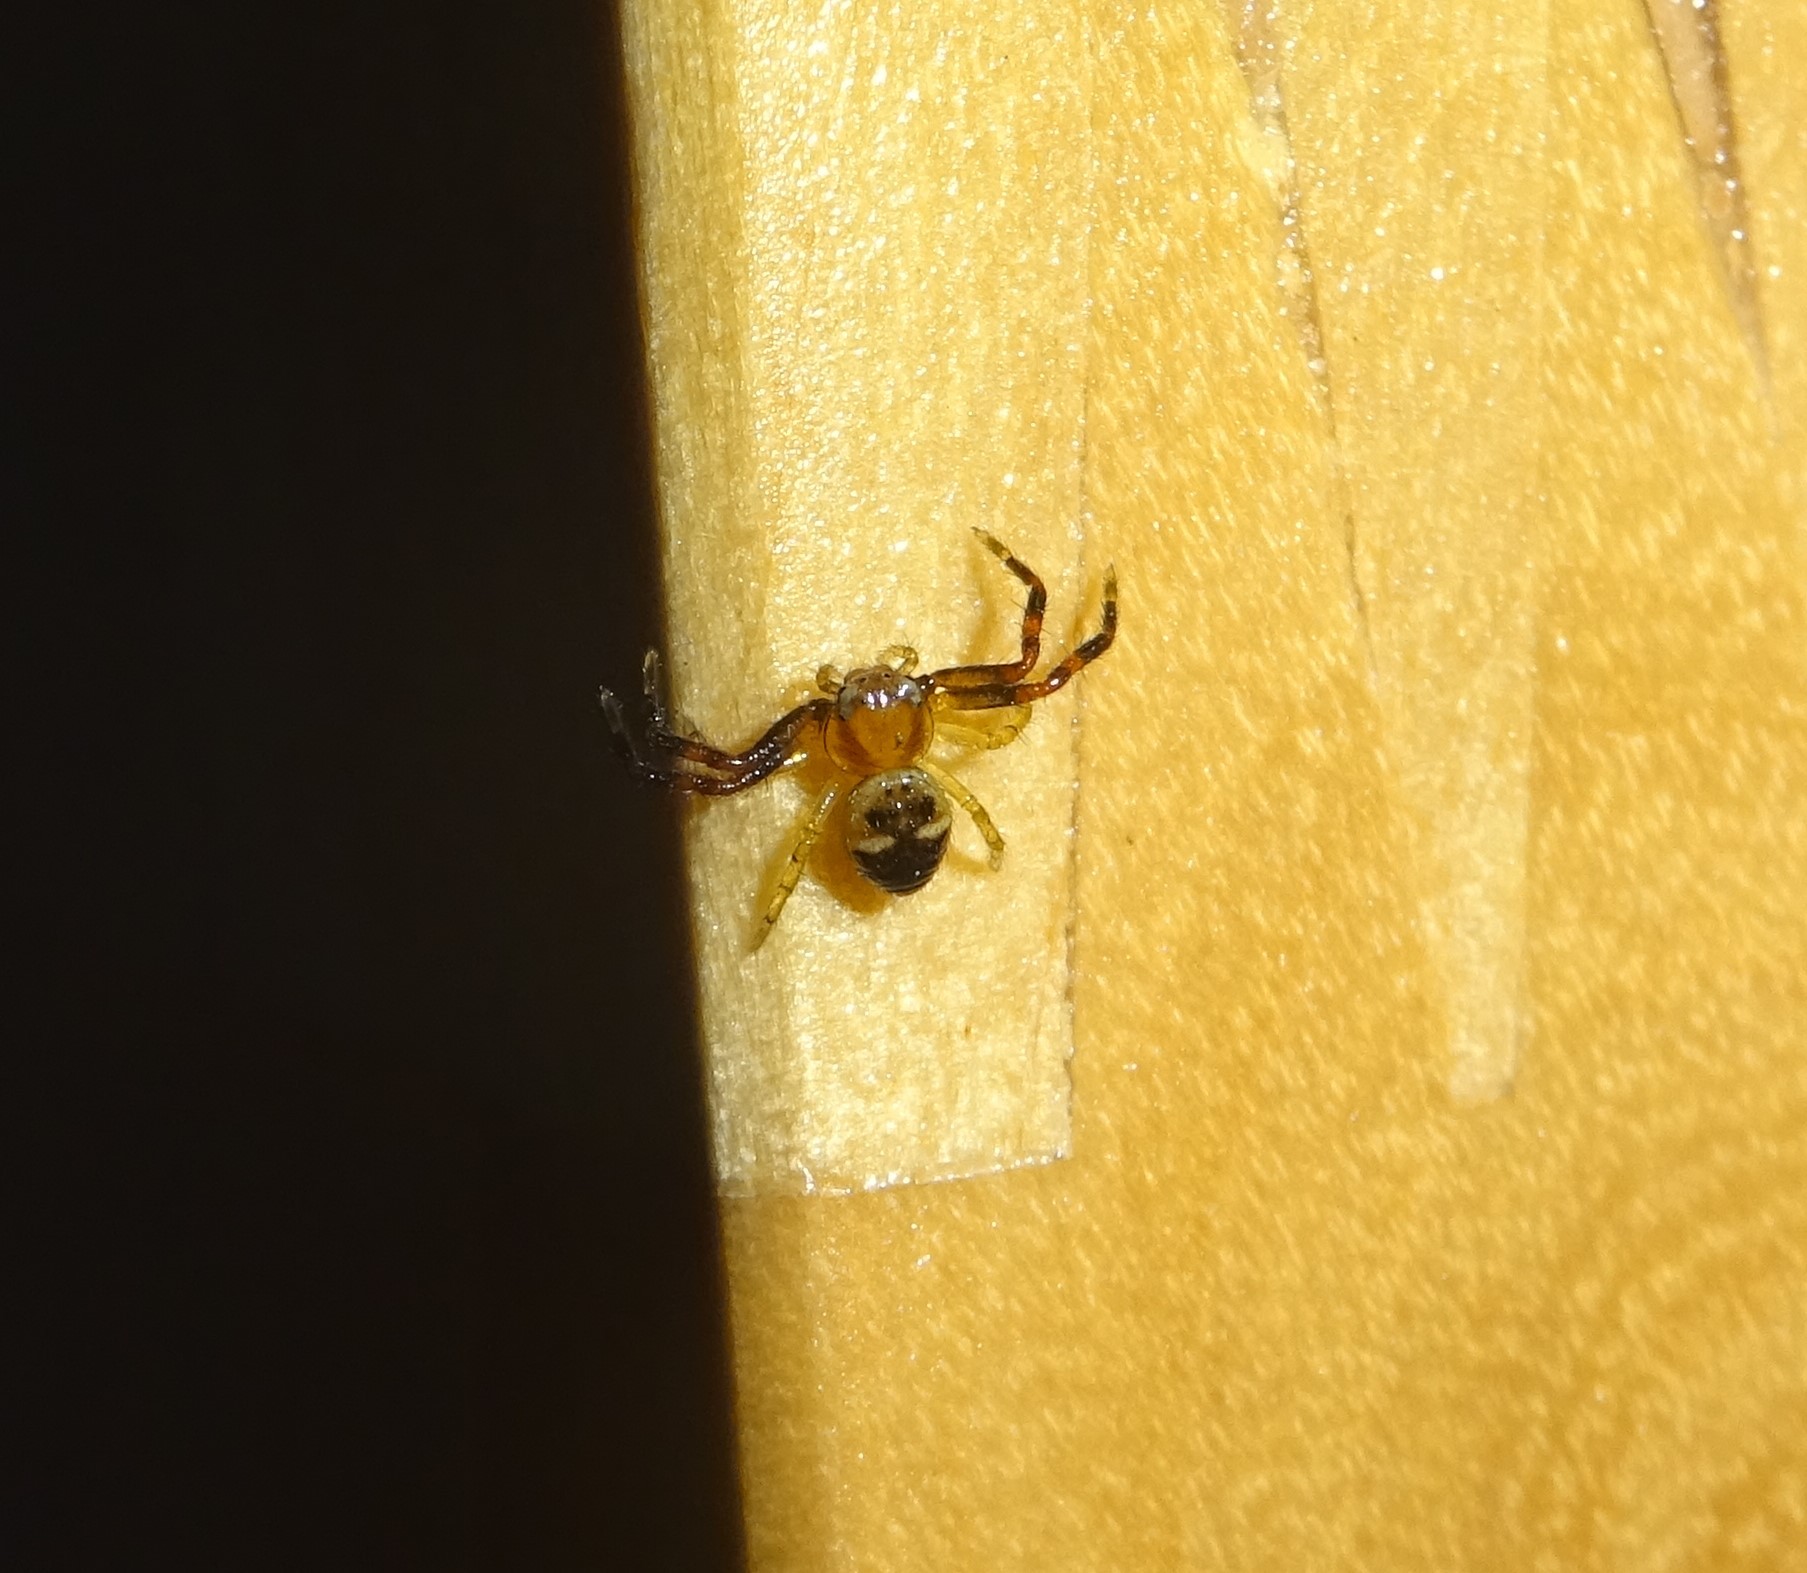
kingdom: Animalia
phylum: Arthropoda
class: Arachnida
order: Araneae
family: Thomisidae
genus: Synema
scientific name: Synema globosum
